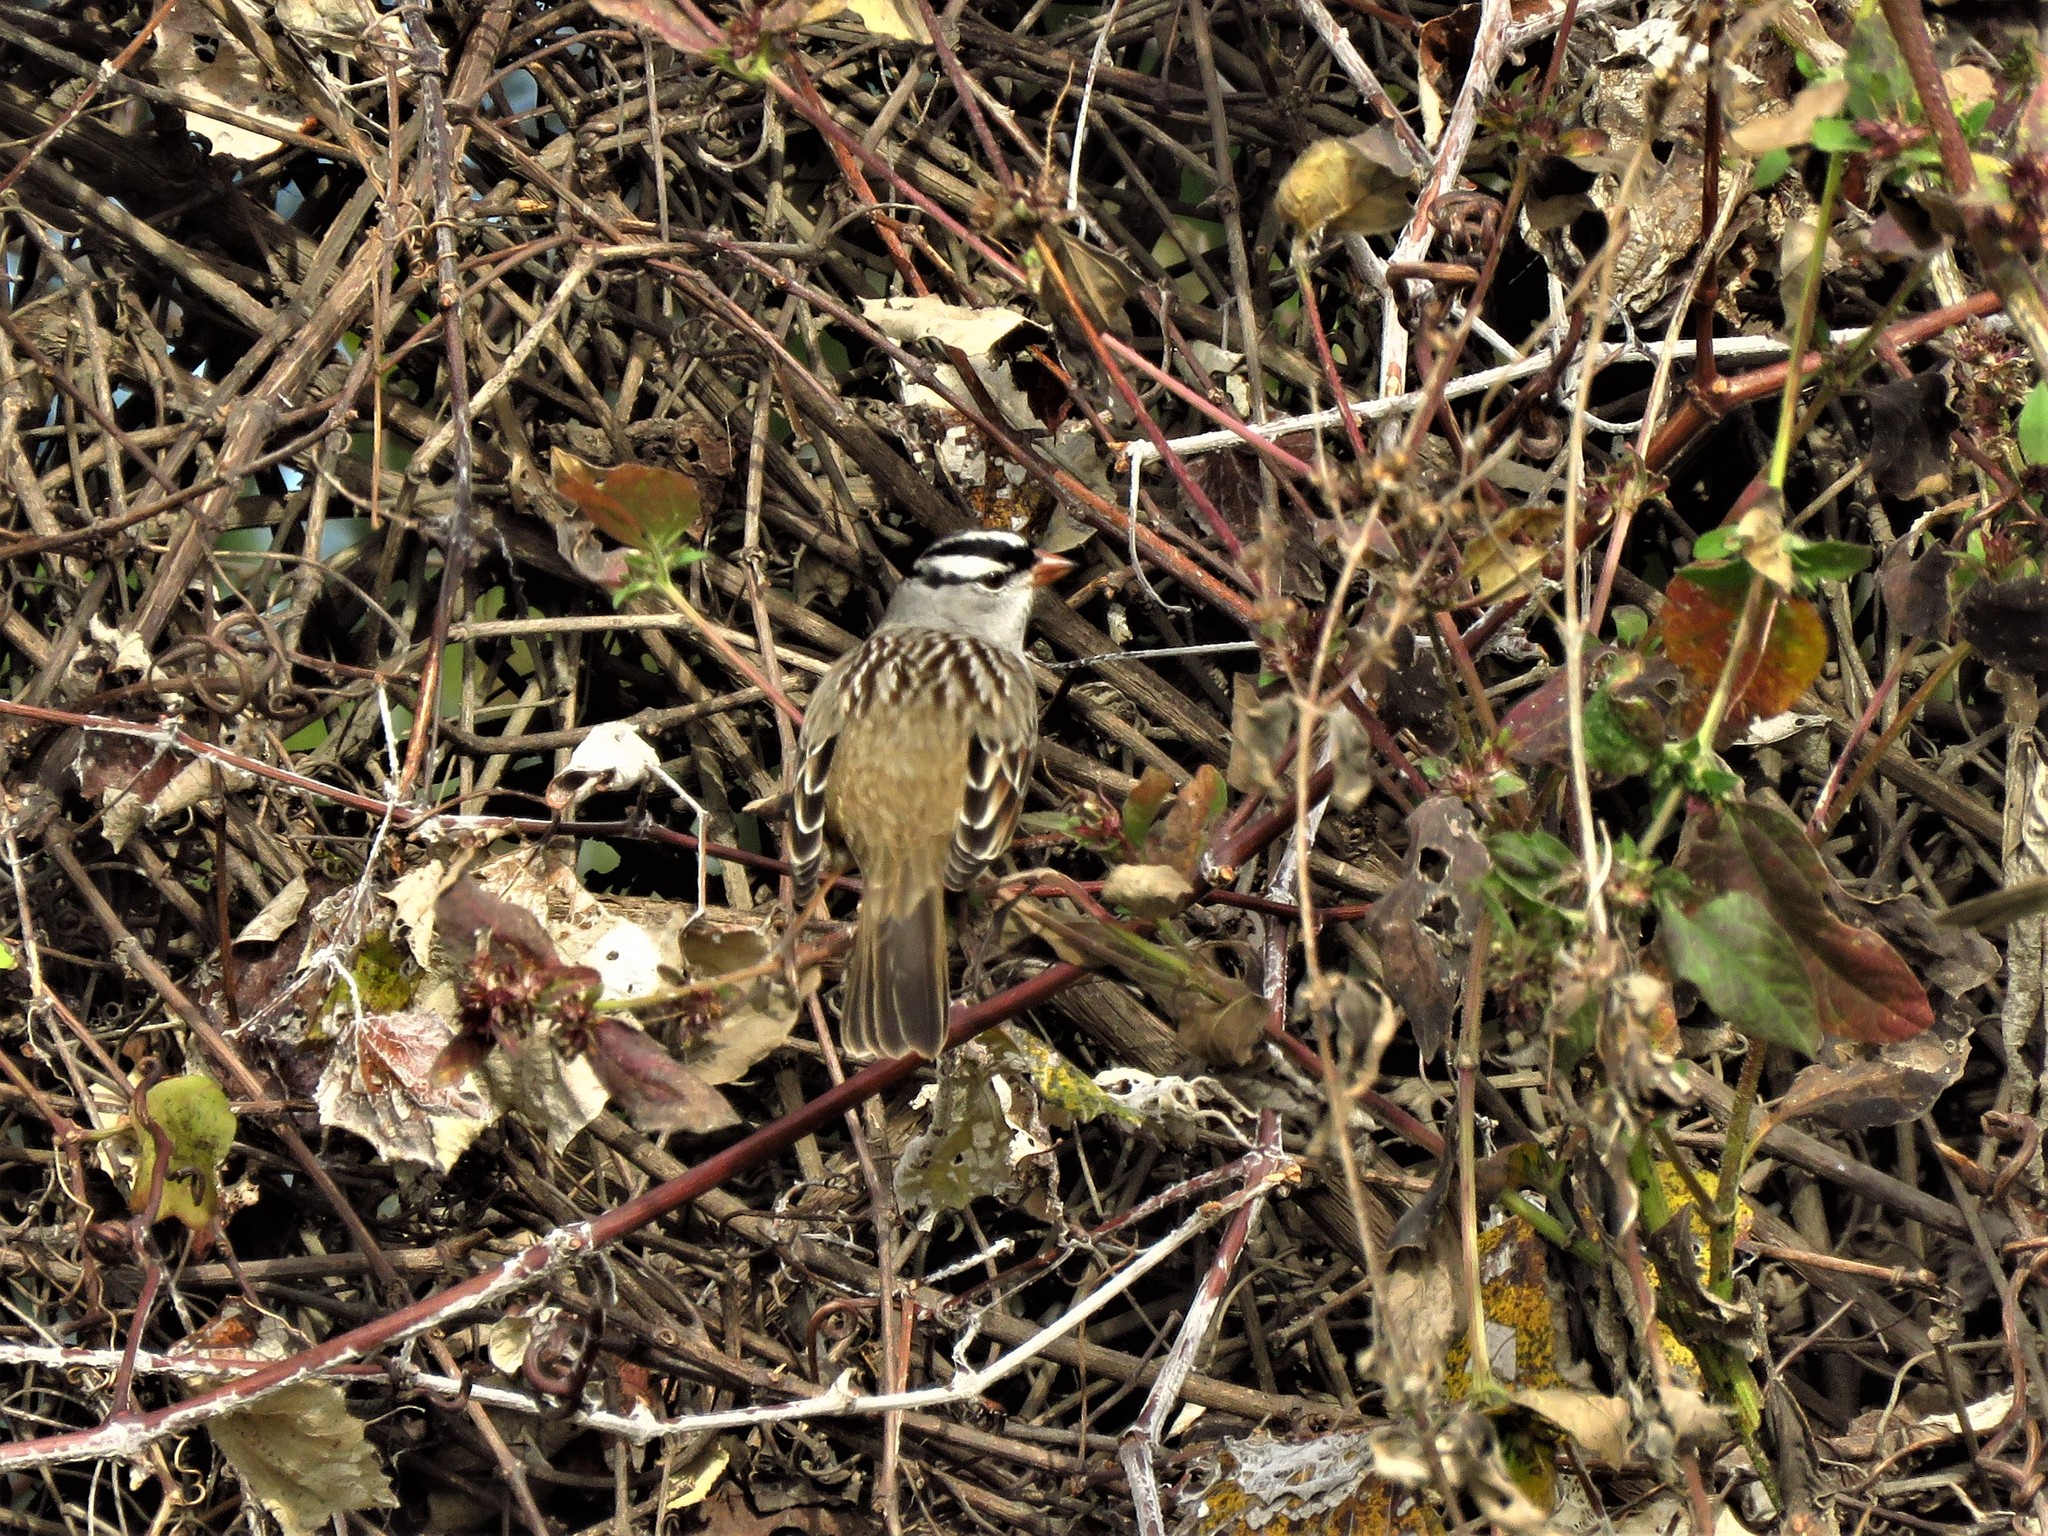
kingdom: Animalia
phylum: Chordata
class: Aves
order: Passeriformes
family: Passerellidae
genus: Zonotrichia
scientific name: Zonotrichia leucophrys
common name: White-crowned sparrow
